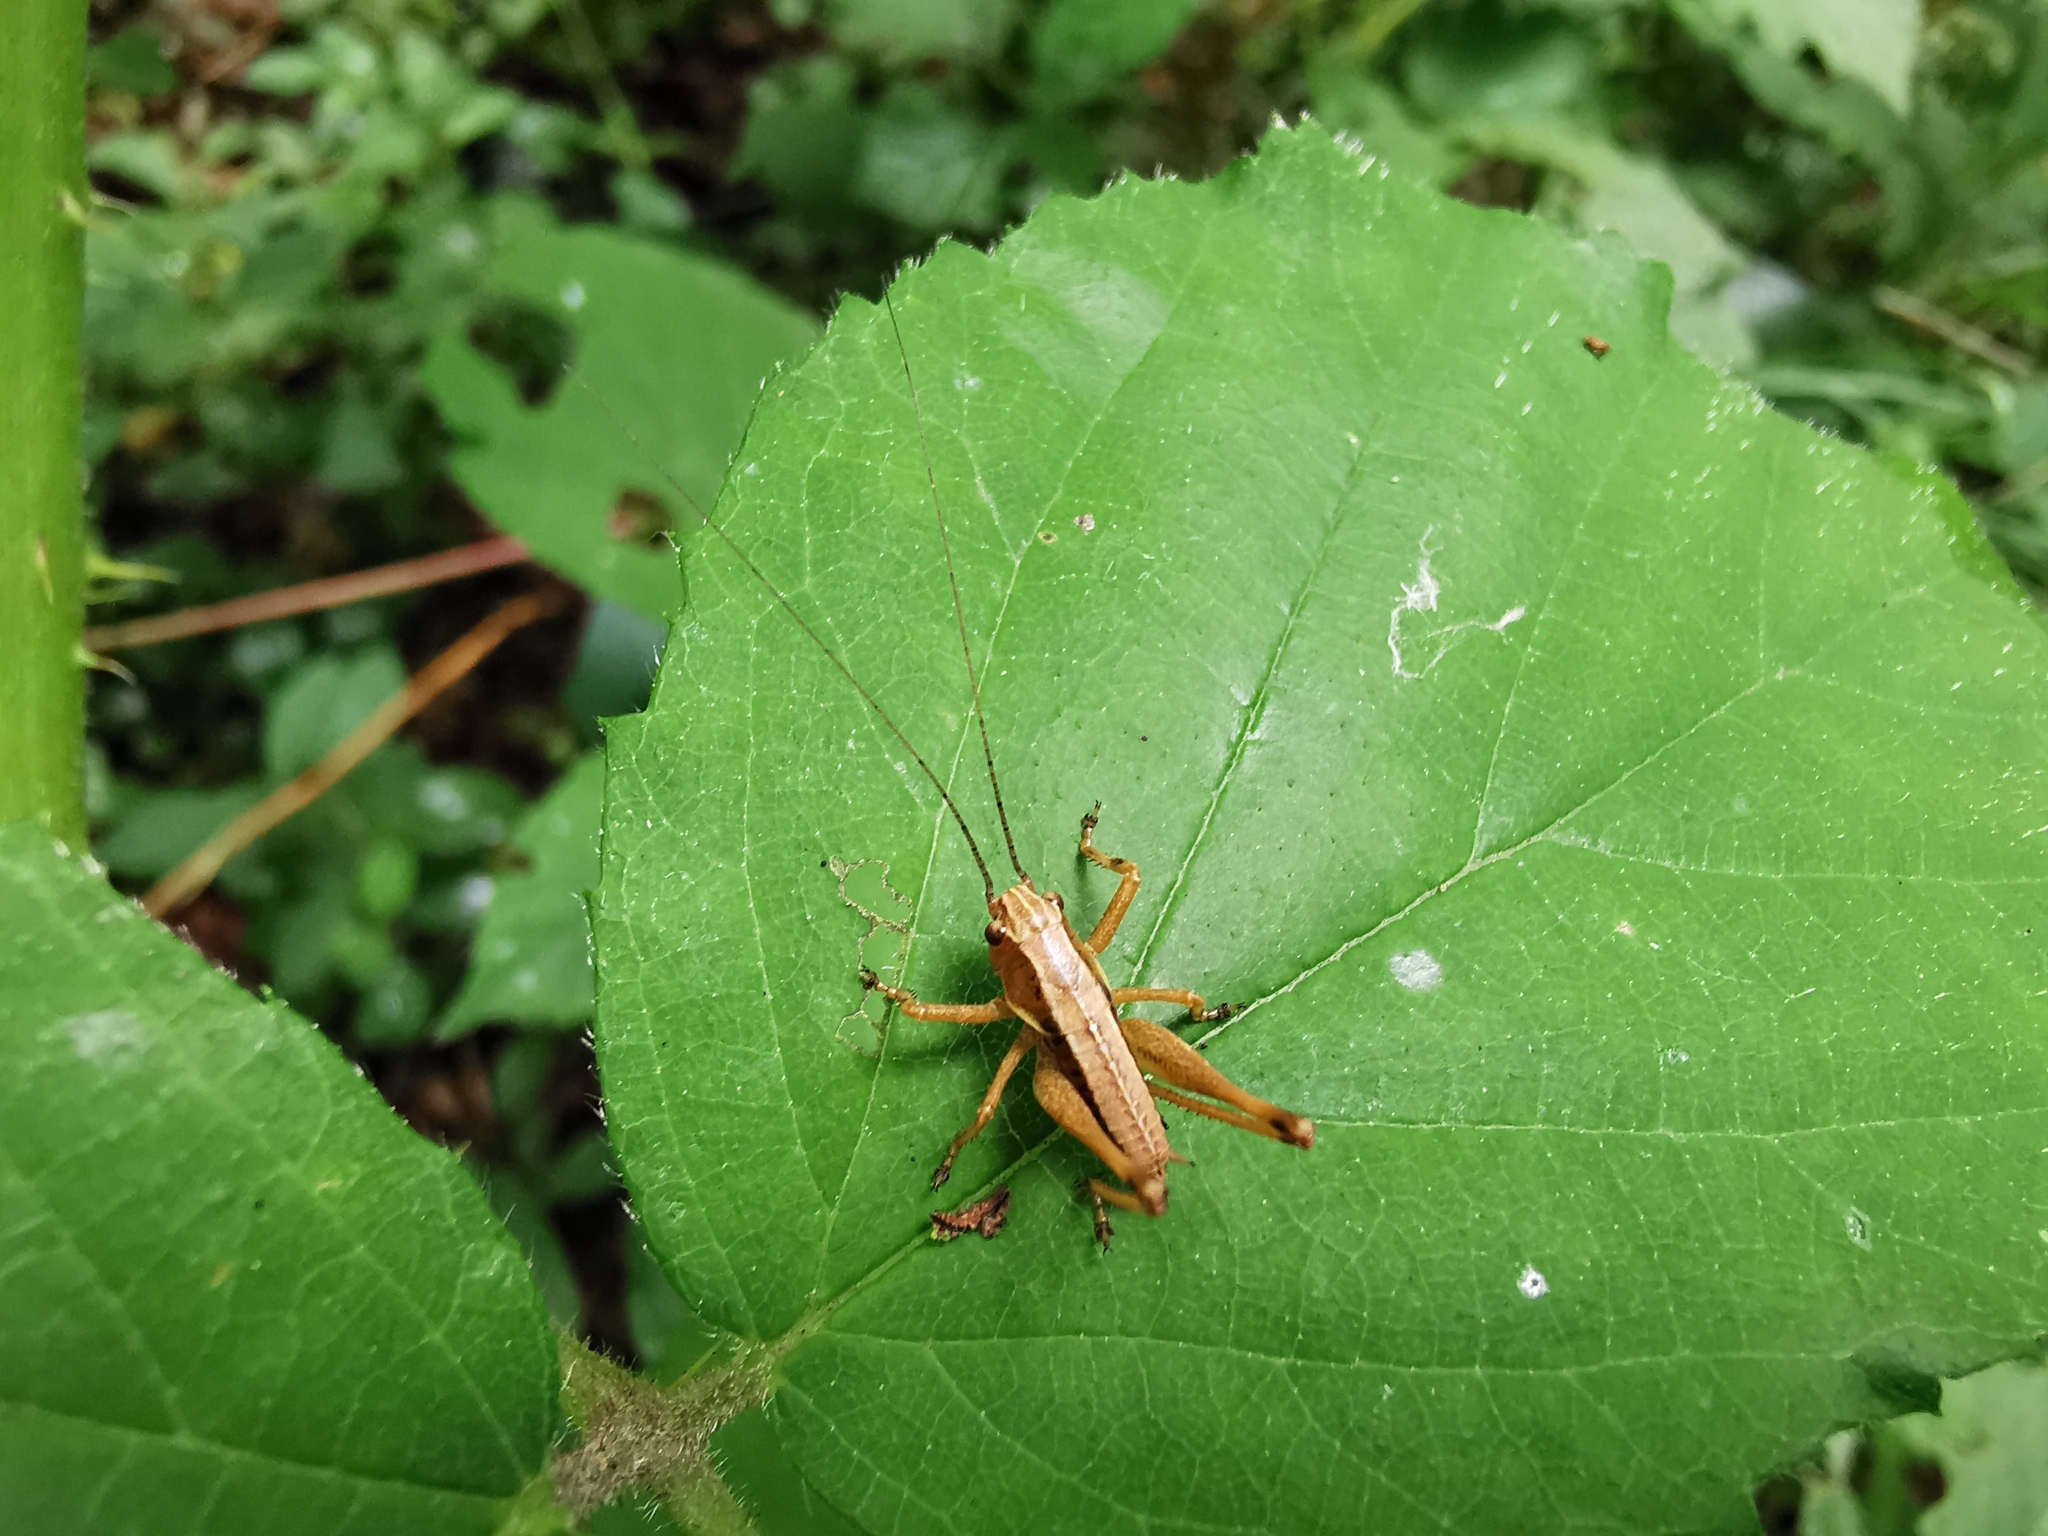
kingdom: Animalia
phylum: Arthropoda
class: Insecta
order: Orthoptera
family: Tettigoniidae
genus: Pholidoptera
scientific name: Pholidoptera griseoaptera
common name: Dark bush-cricket
